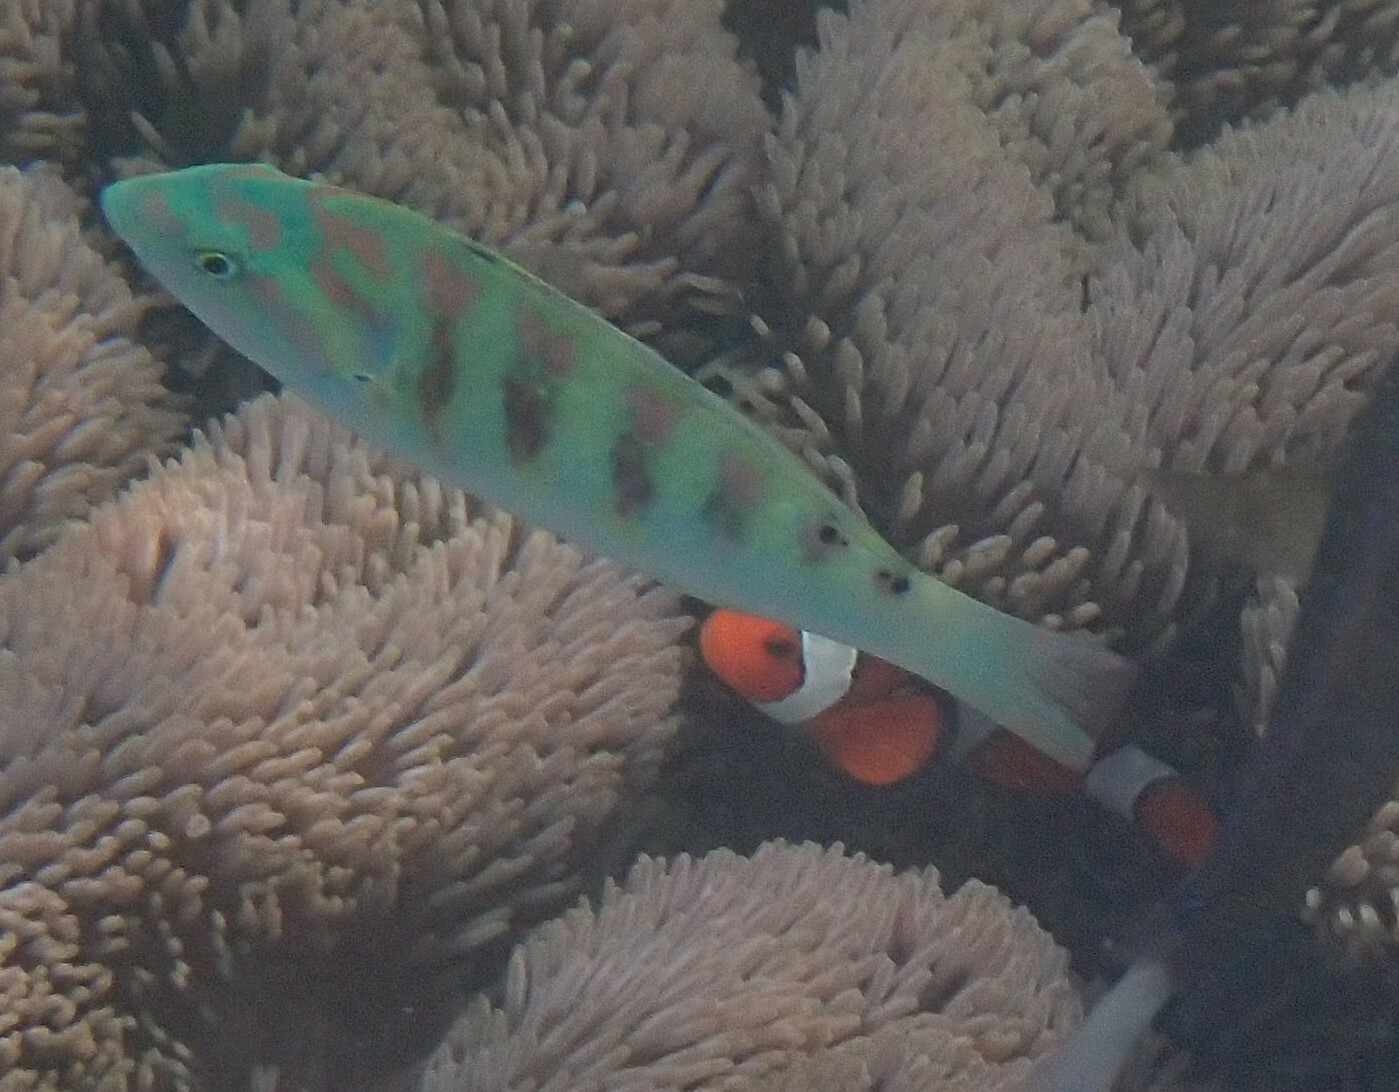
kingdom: Animalia
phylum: Chordata
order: Perciformes
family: Labridae
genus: Thalassoma
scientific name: Thalassoma hardwicke
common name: Sixbar wrasse
